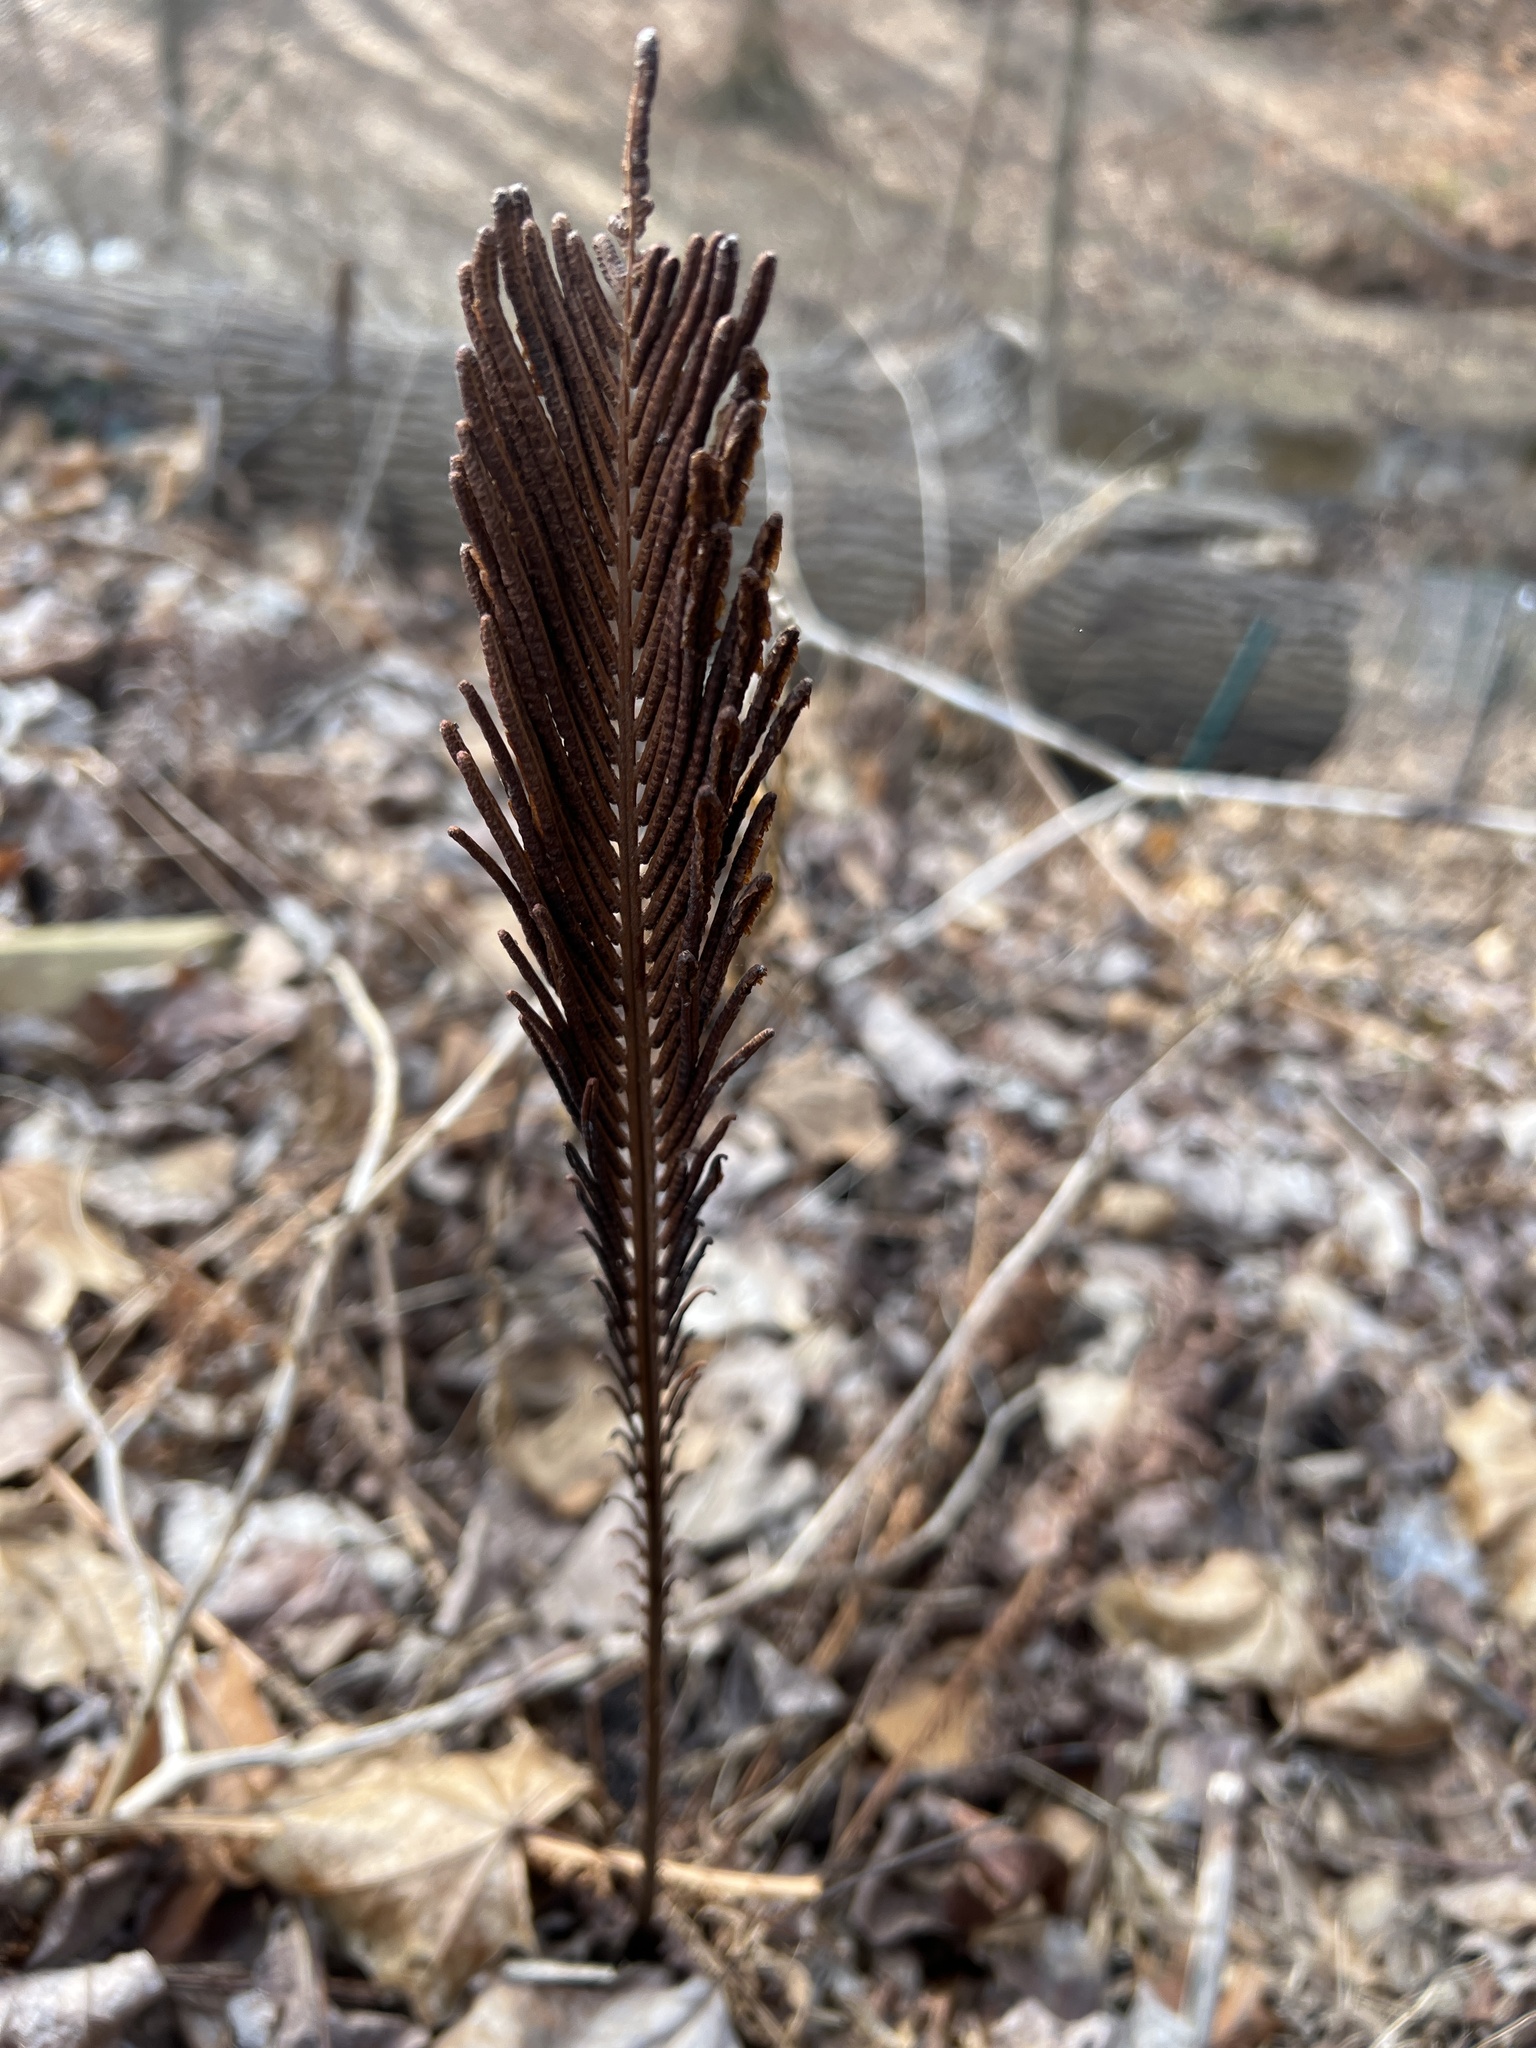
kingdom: Plantae
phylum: Tracheophyta
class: Polypodiopsida
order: Polypodiales
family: Onocleaceae
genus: Matteuccia
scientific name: Matteuccia struthiopteris
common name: Ostrich fern
